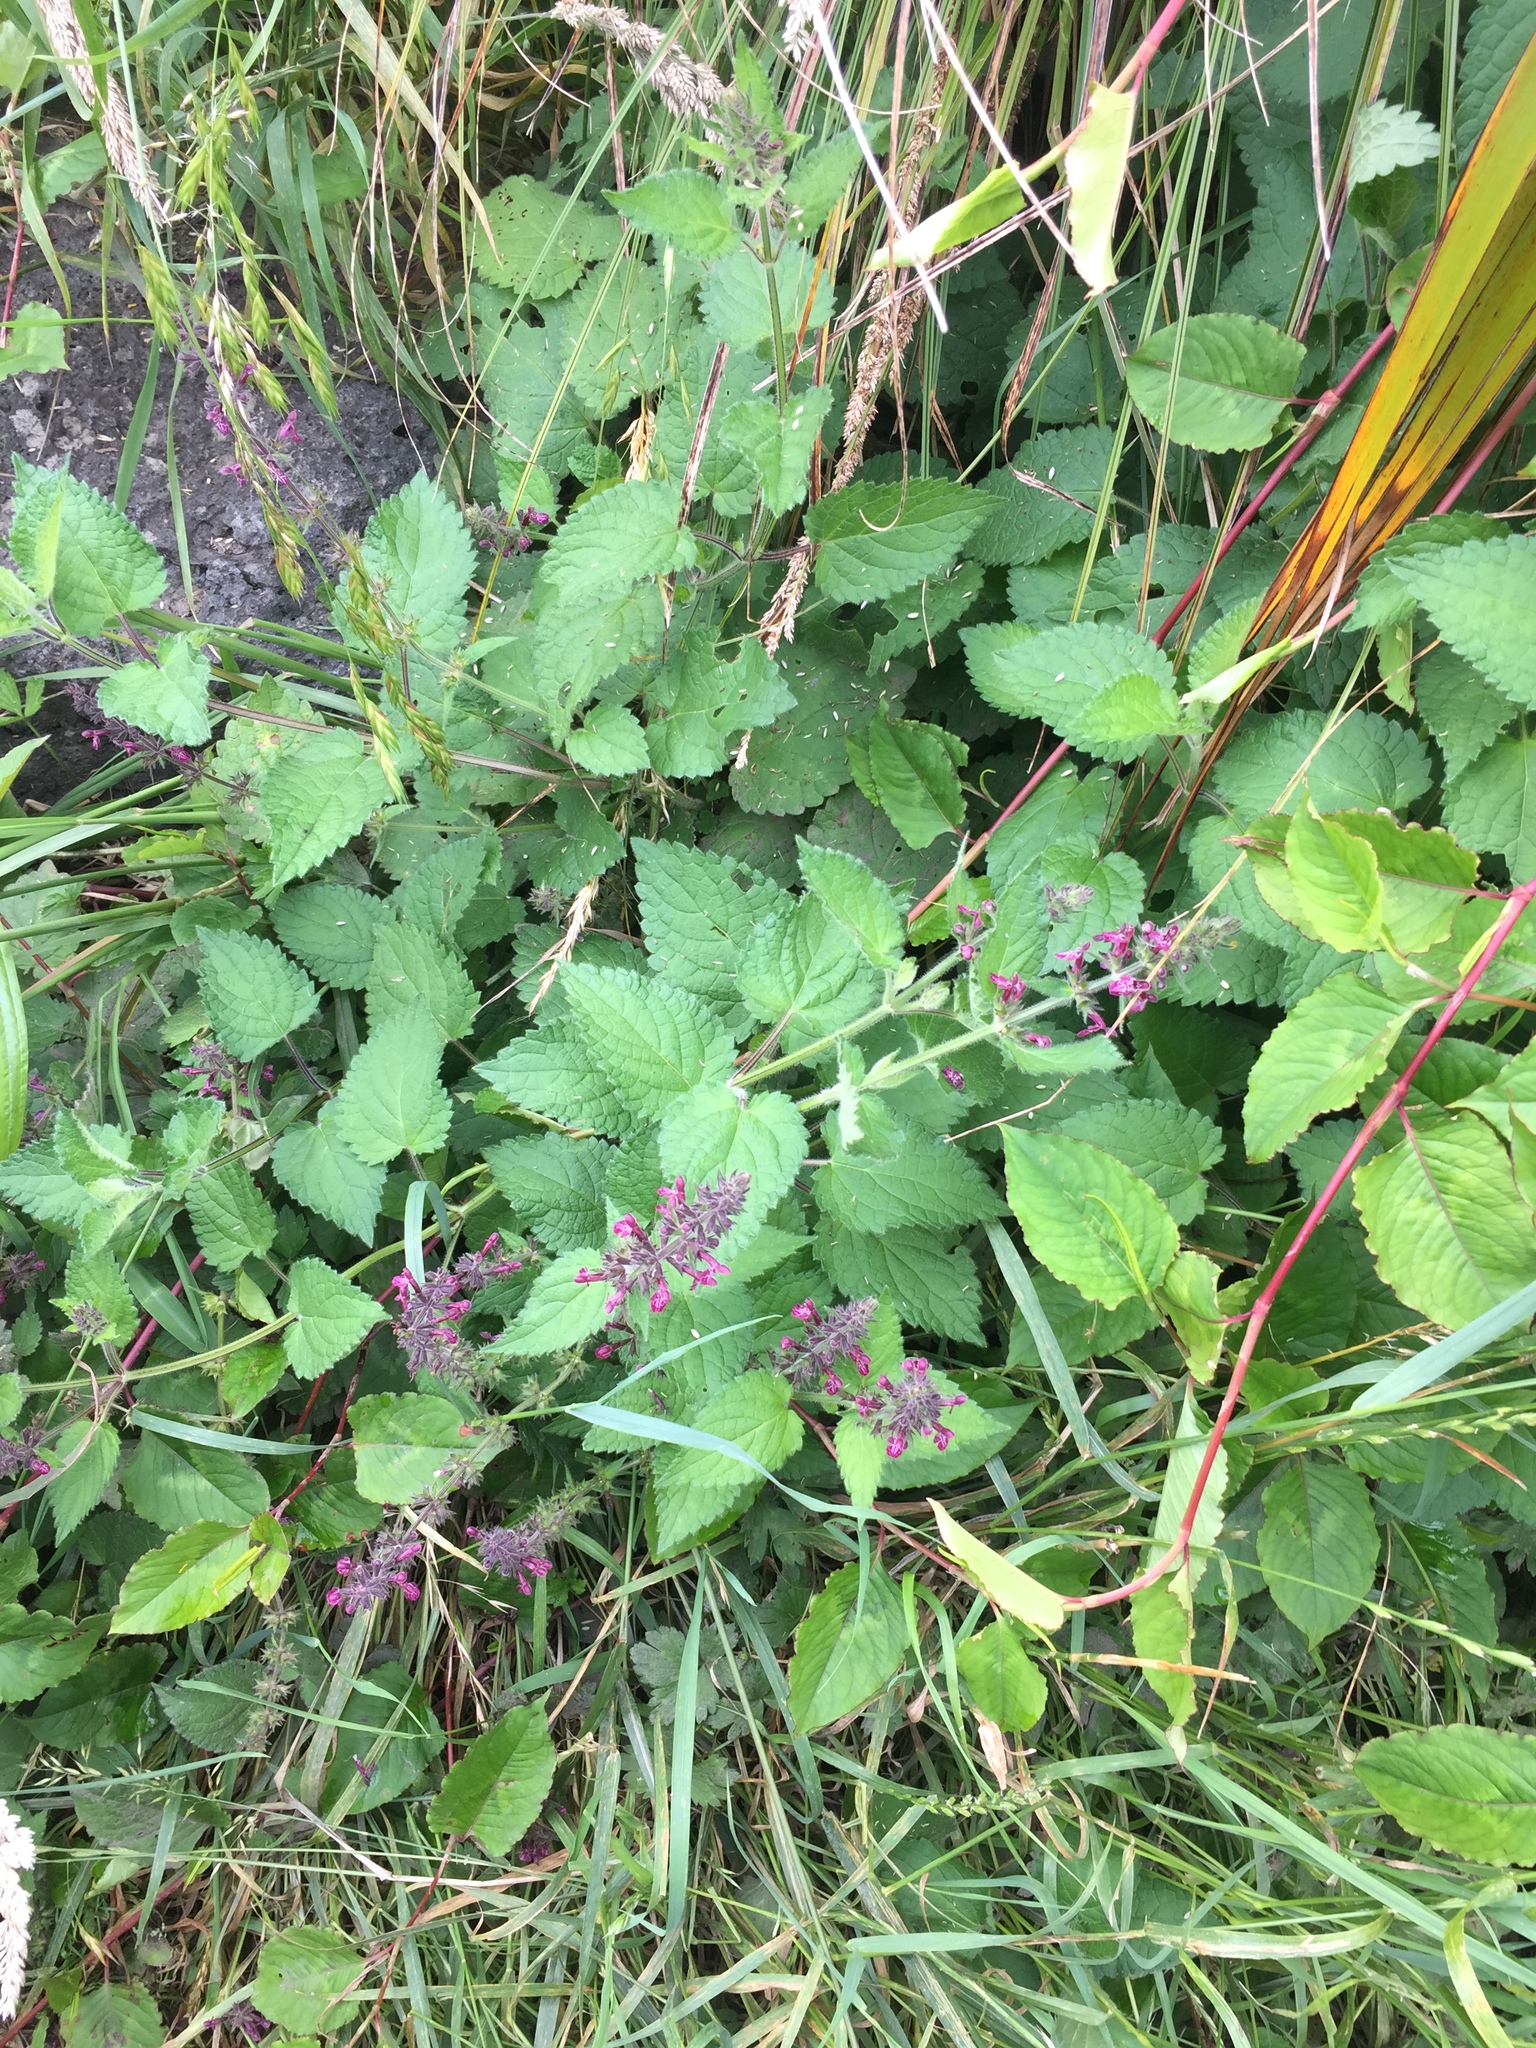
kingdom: Plantae
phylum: Tracheophyta
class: Magnoliopsida
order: Lamiales
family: Lamiaceae
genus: Stachys
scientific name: Stachys sylvatica
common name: Hedge woundwort
